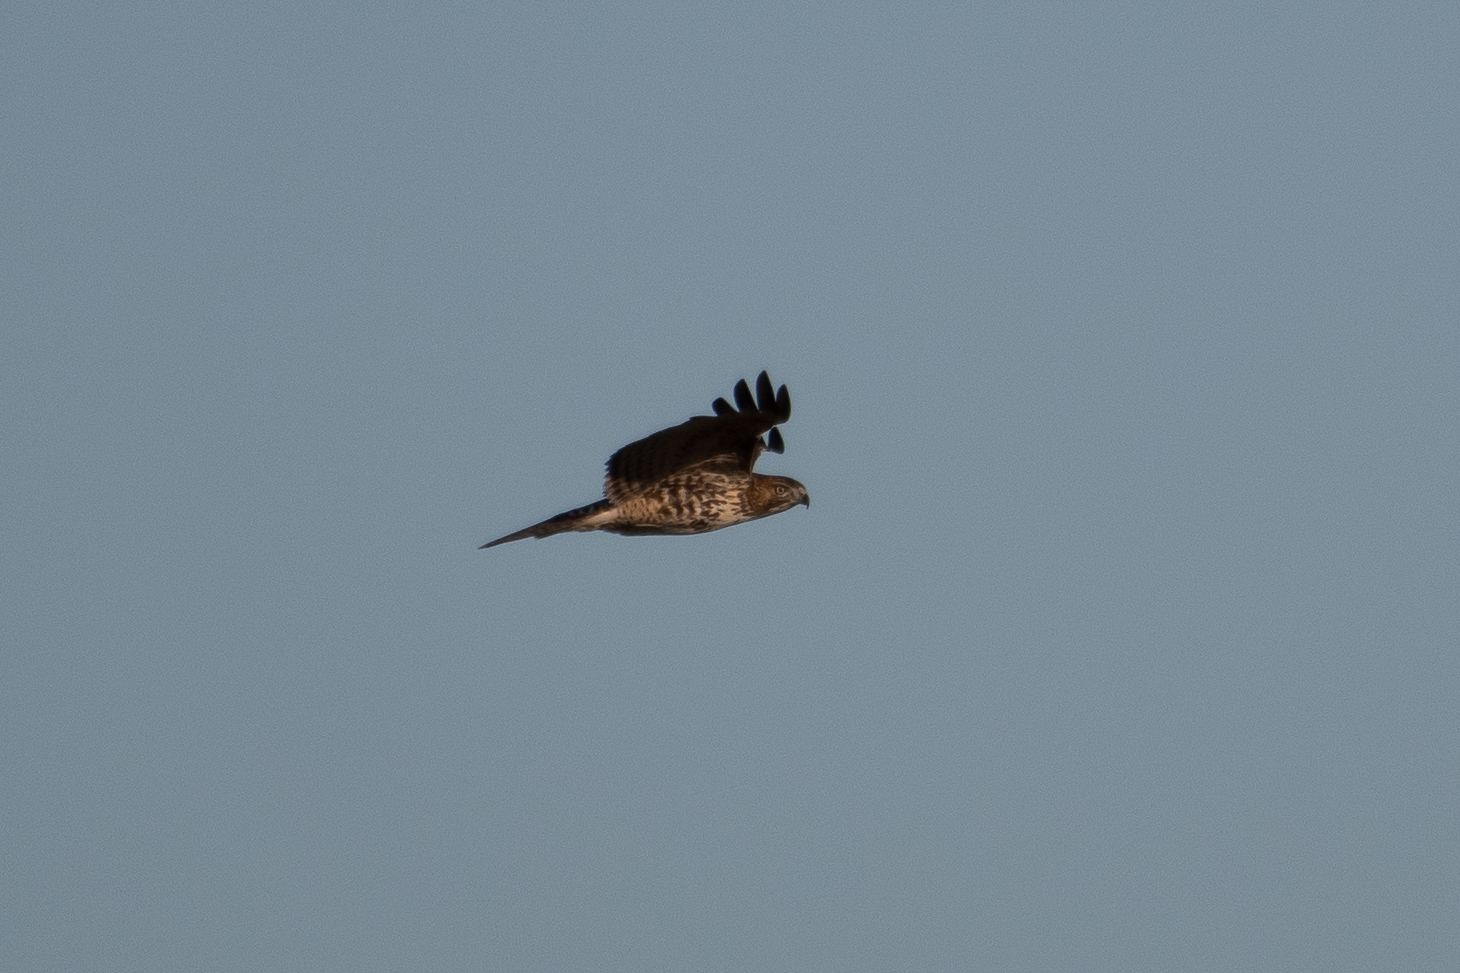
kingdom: Animalia
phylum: Chordata
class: Aves
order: Accipitriformes
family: Accipitridae
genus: Buteo
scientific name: Buteo jamaicensis
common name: Red-tailed hawk
